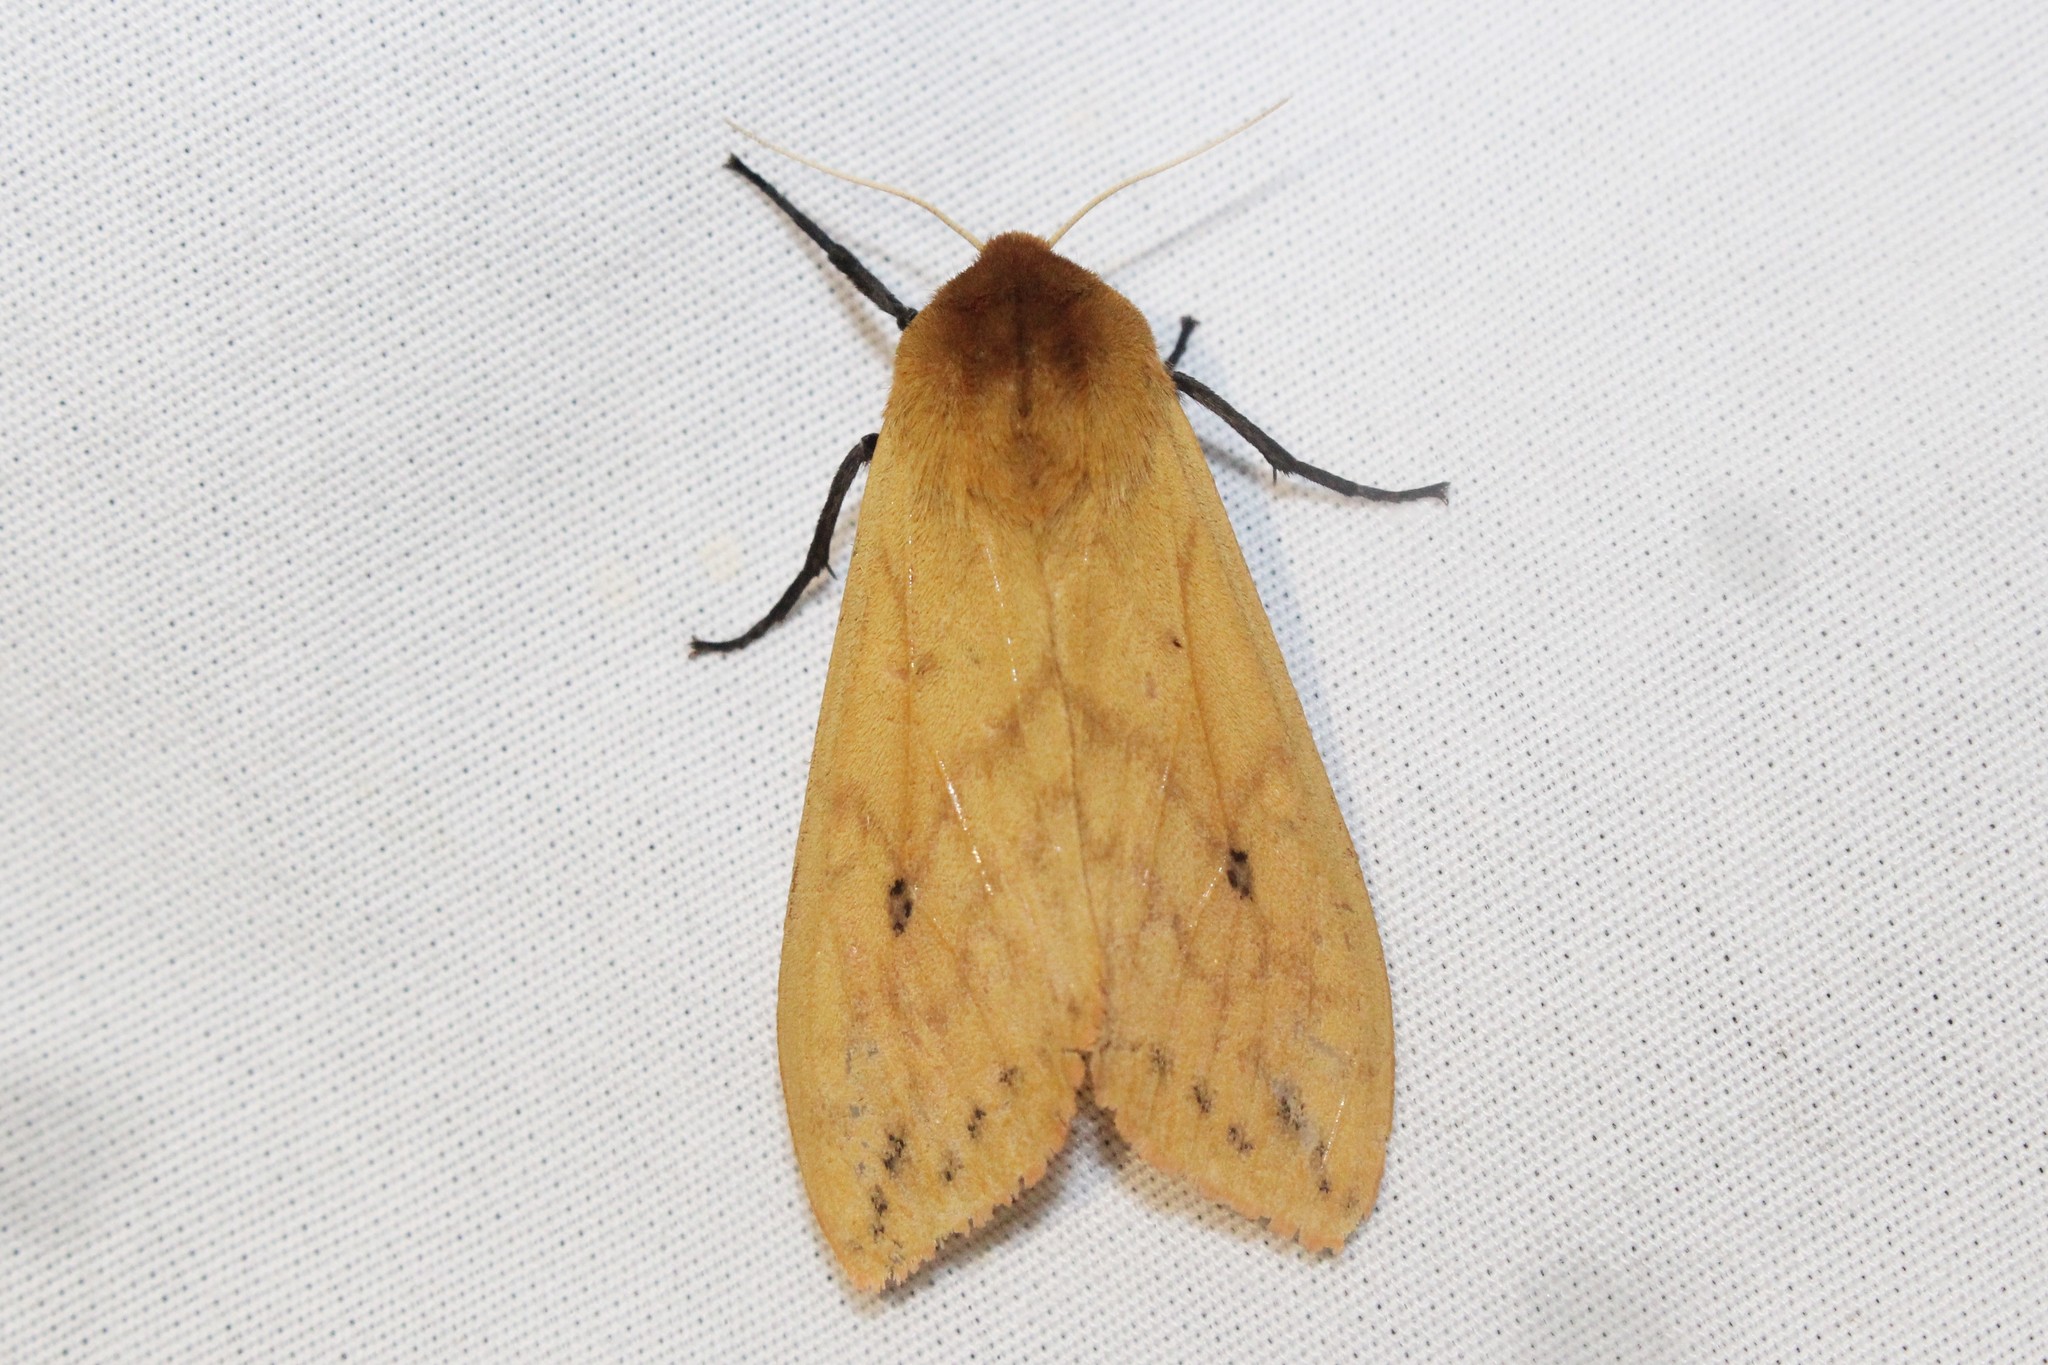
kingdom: Animalia
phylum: Arthropoda
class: Insecta
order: Lepidoptera
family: Erebidae
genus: Pyrrharctia
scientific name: Pyrrharctia isabella
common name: Isabella tiger moth
